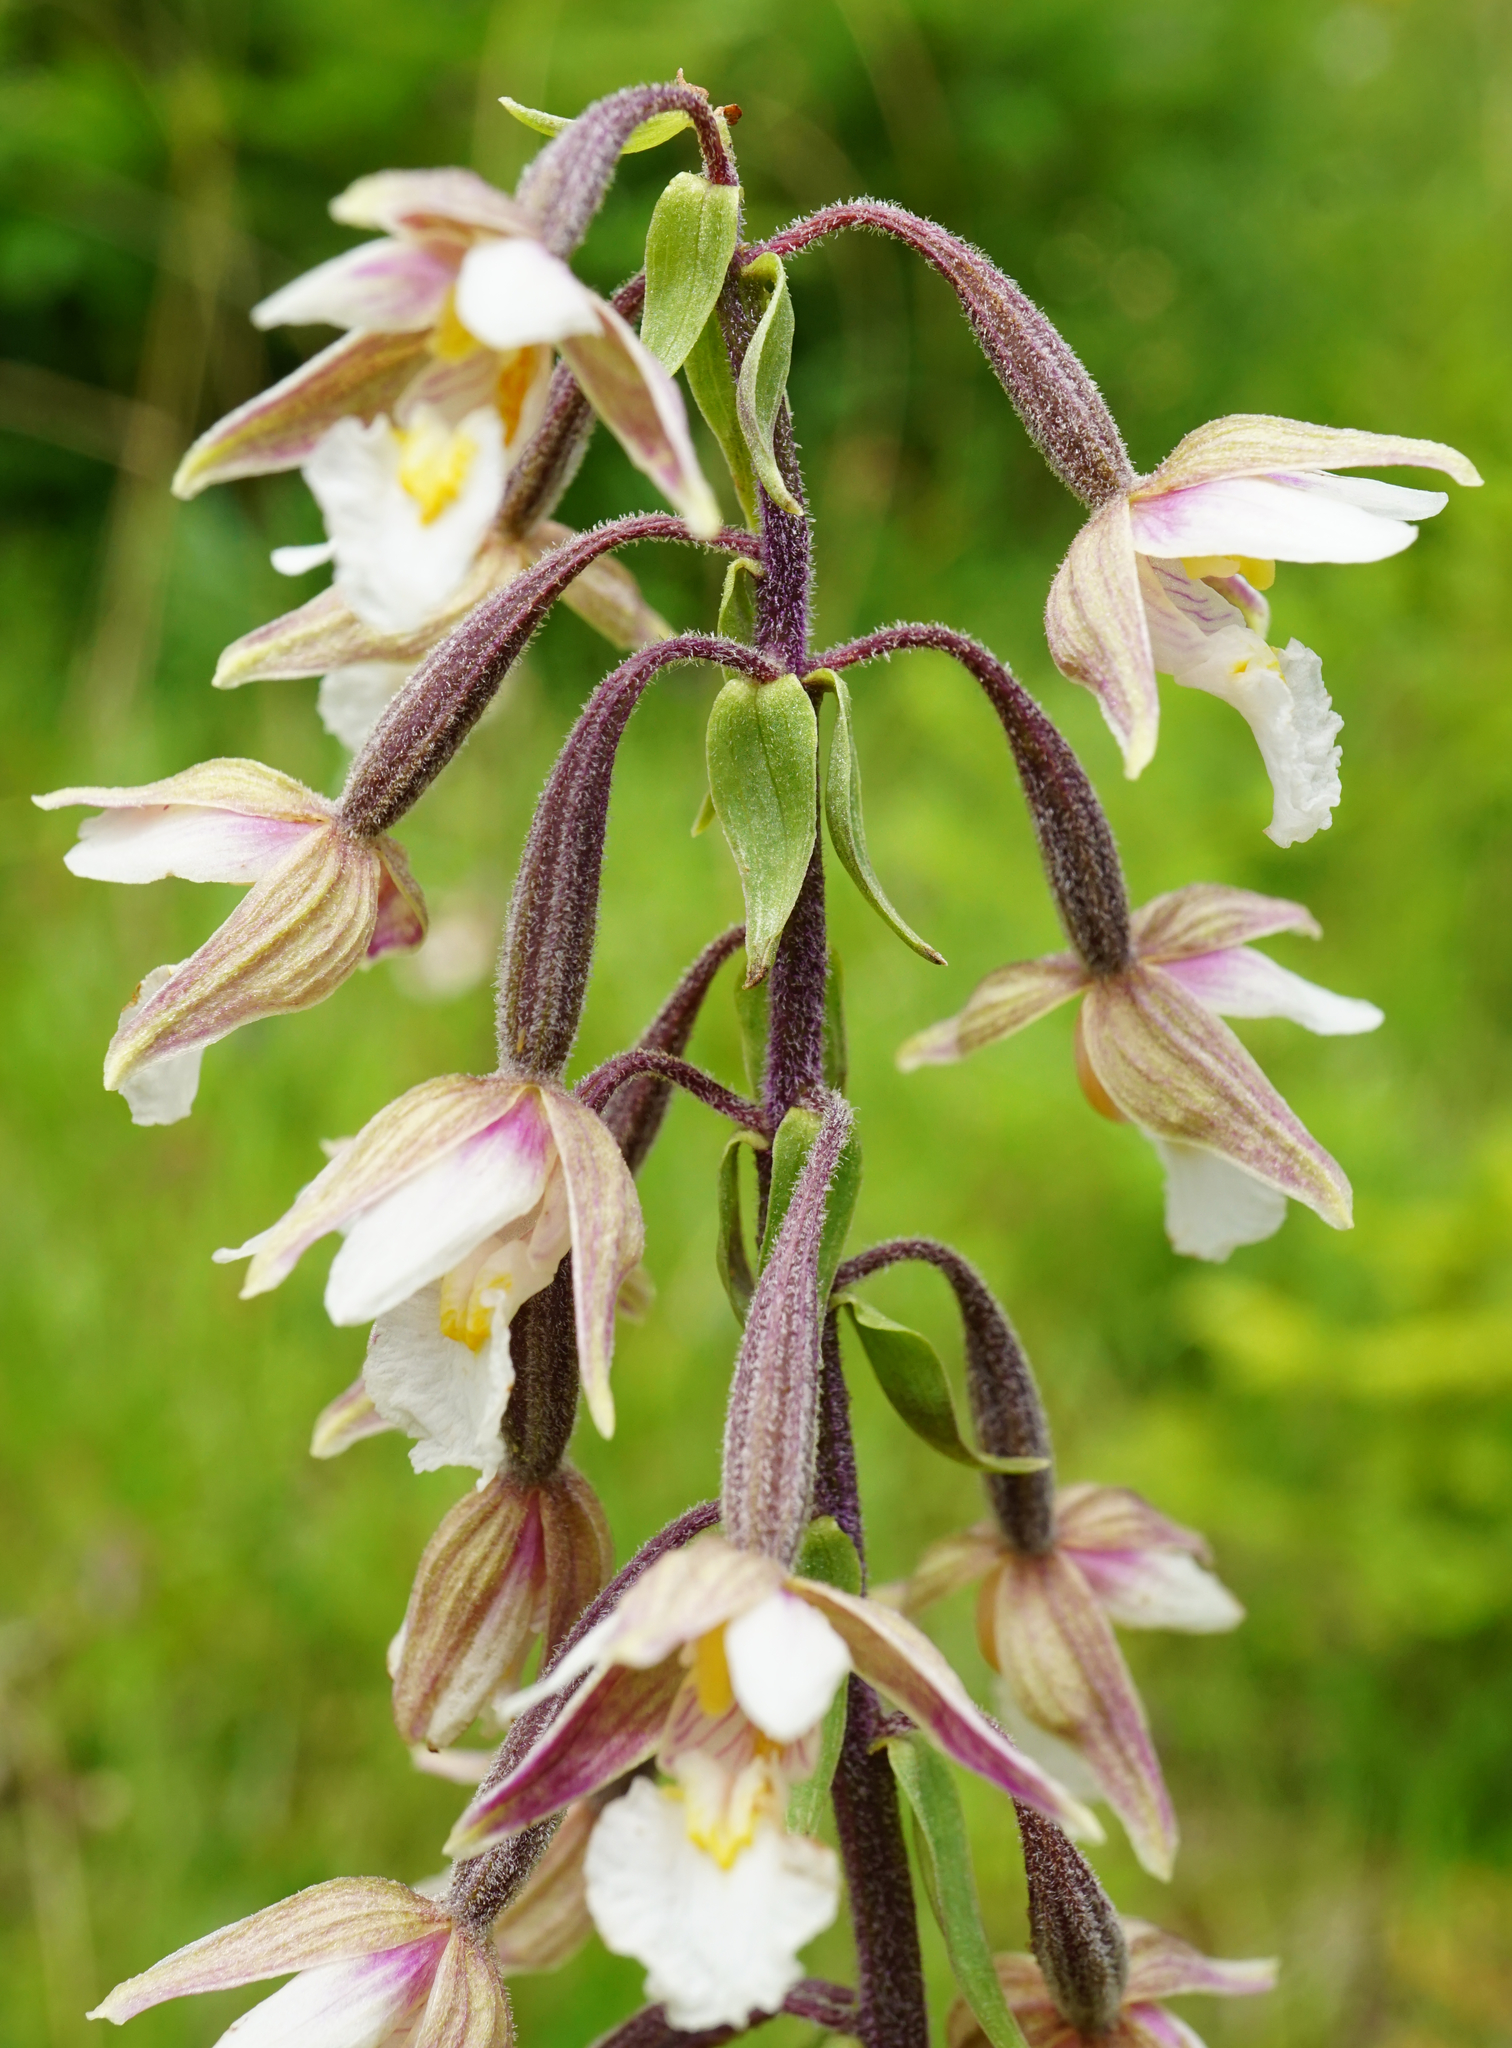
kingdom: Plantae
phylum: Tracheophyta
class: Liliopsida
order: Asparagales
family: Orchidaceae
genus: Epipactis
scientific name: Epipactis palustris
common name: Marsh helleborine
